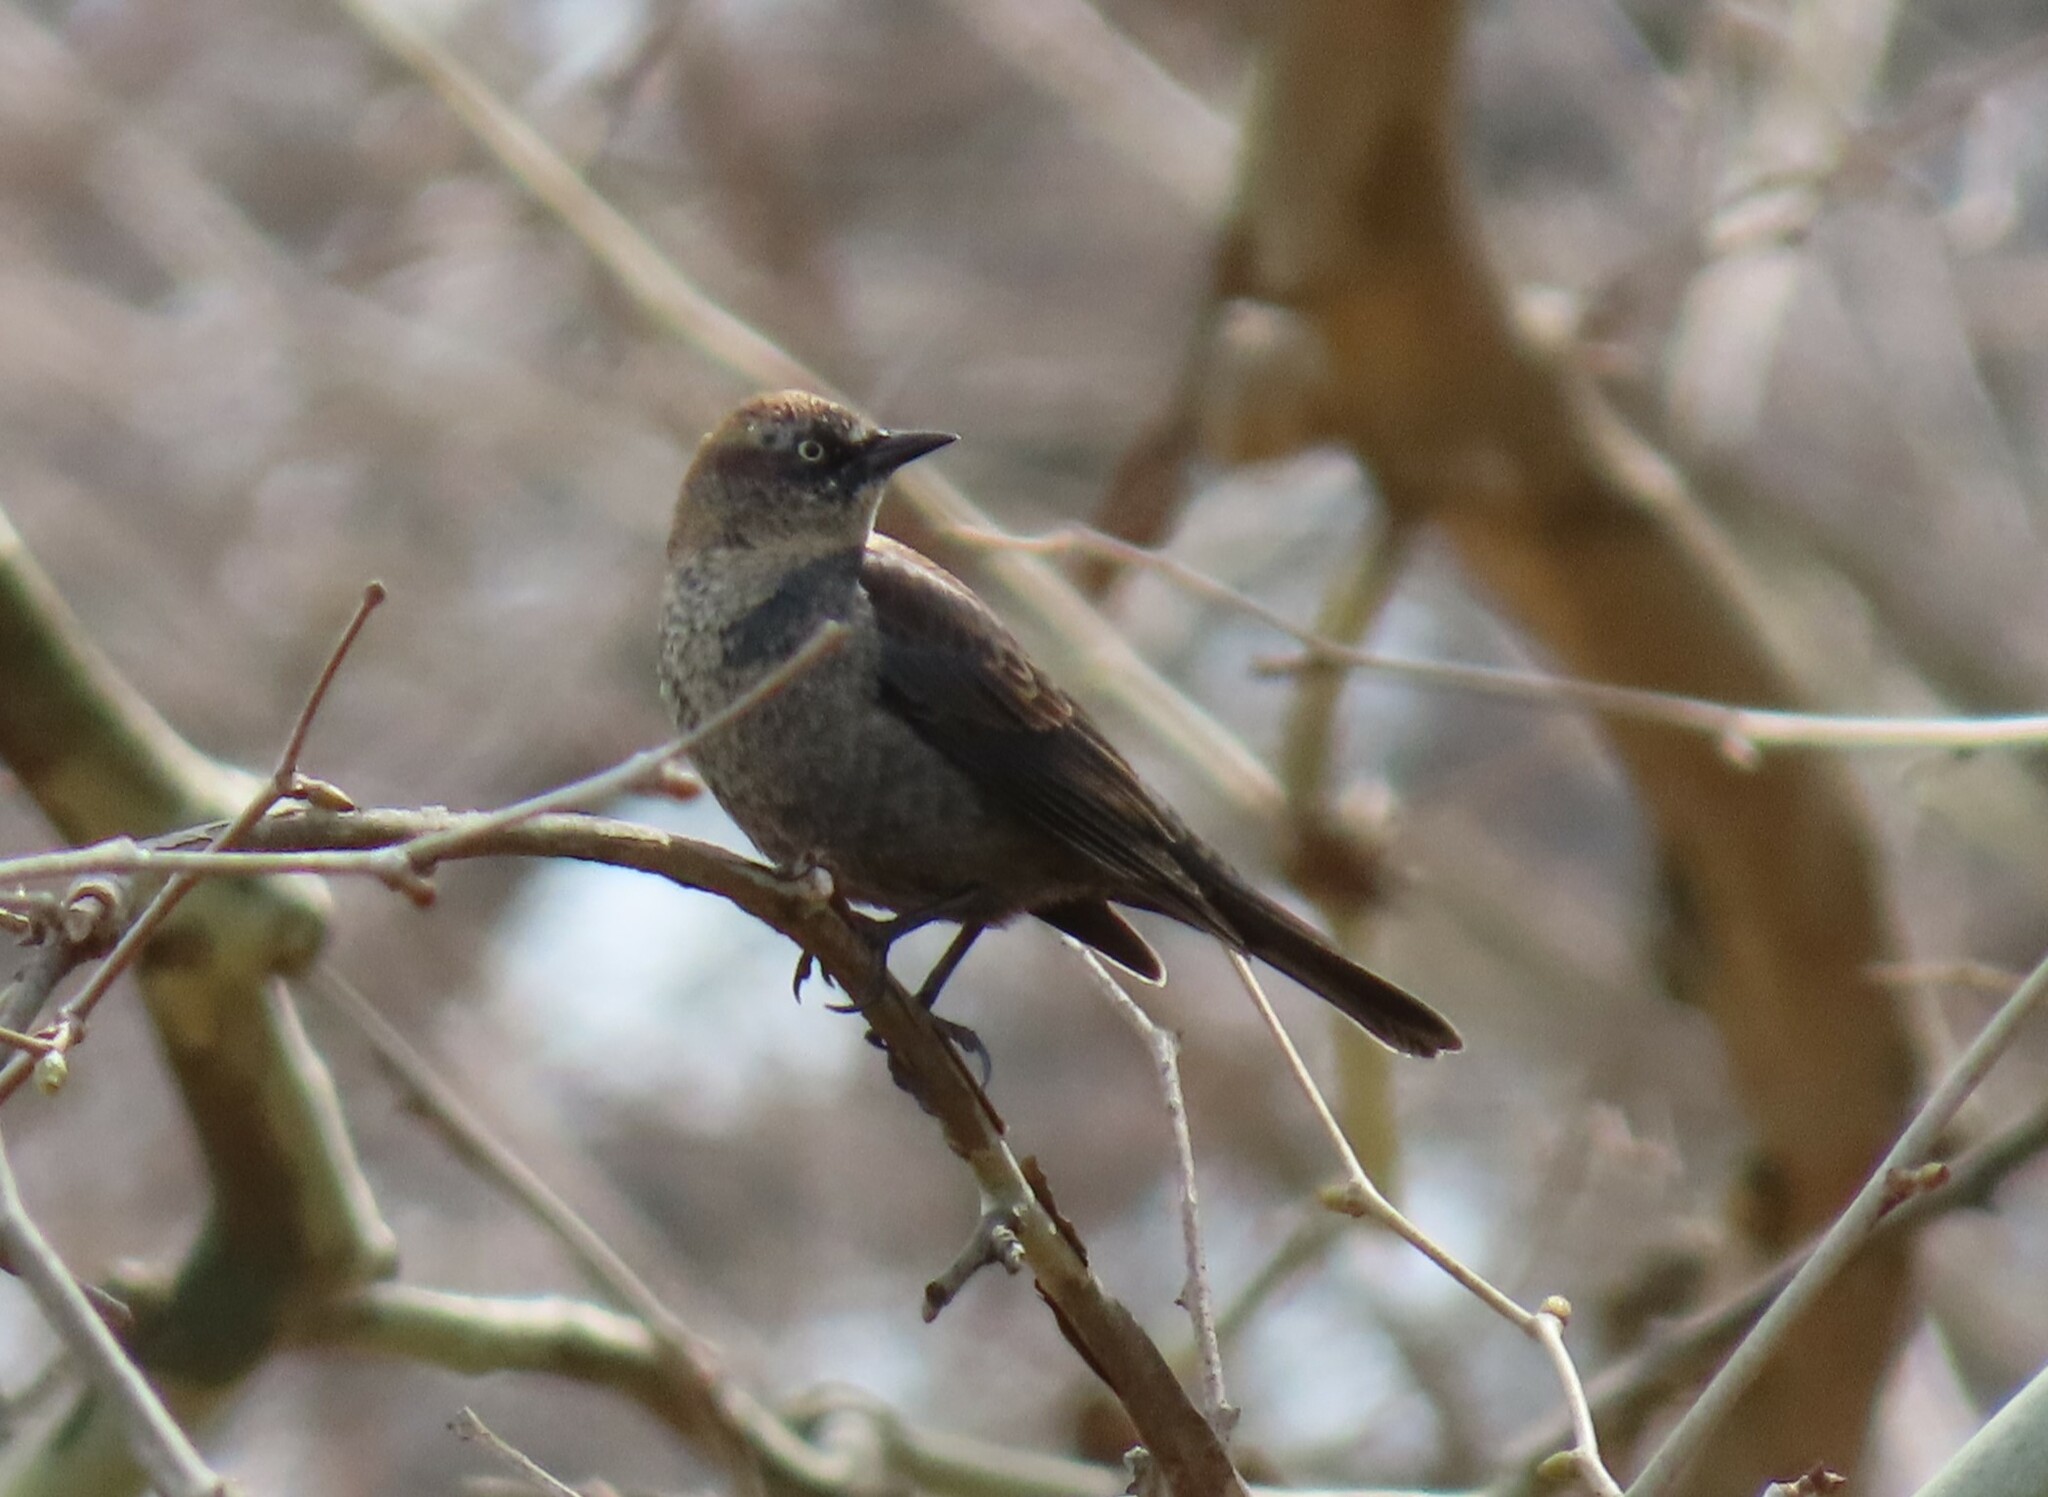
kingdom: Animalia
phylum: Chordata
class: Aves
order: Passeriformes
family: Icteridae
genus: Euphagus
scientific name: Euphagus carolinus
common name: Rusty blackbird
